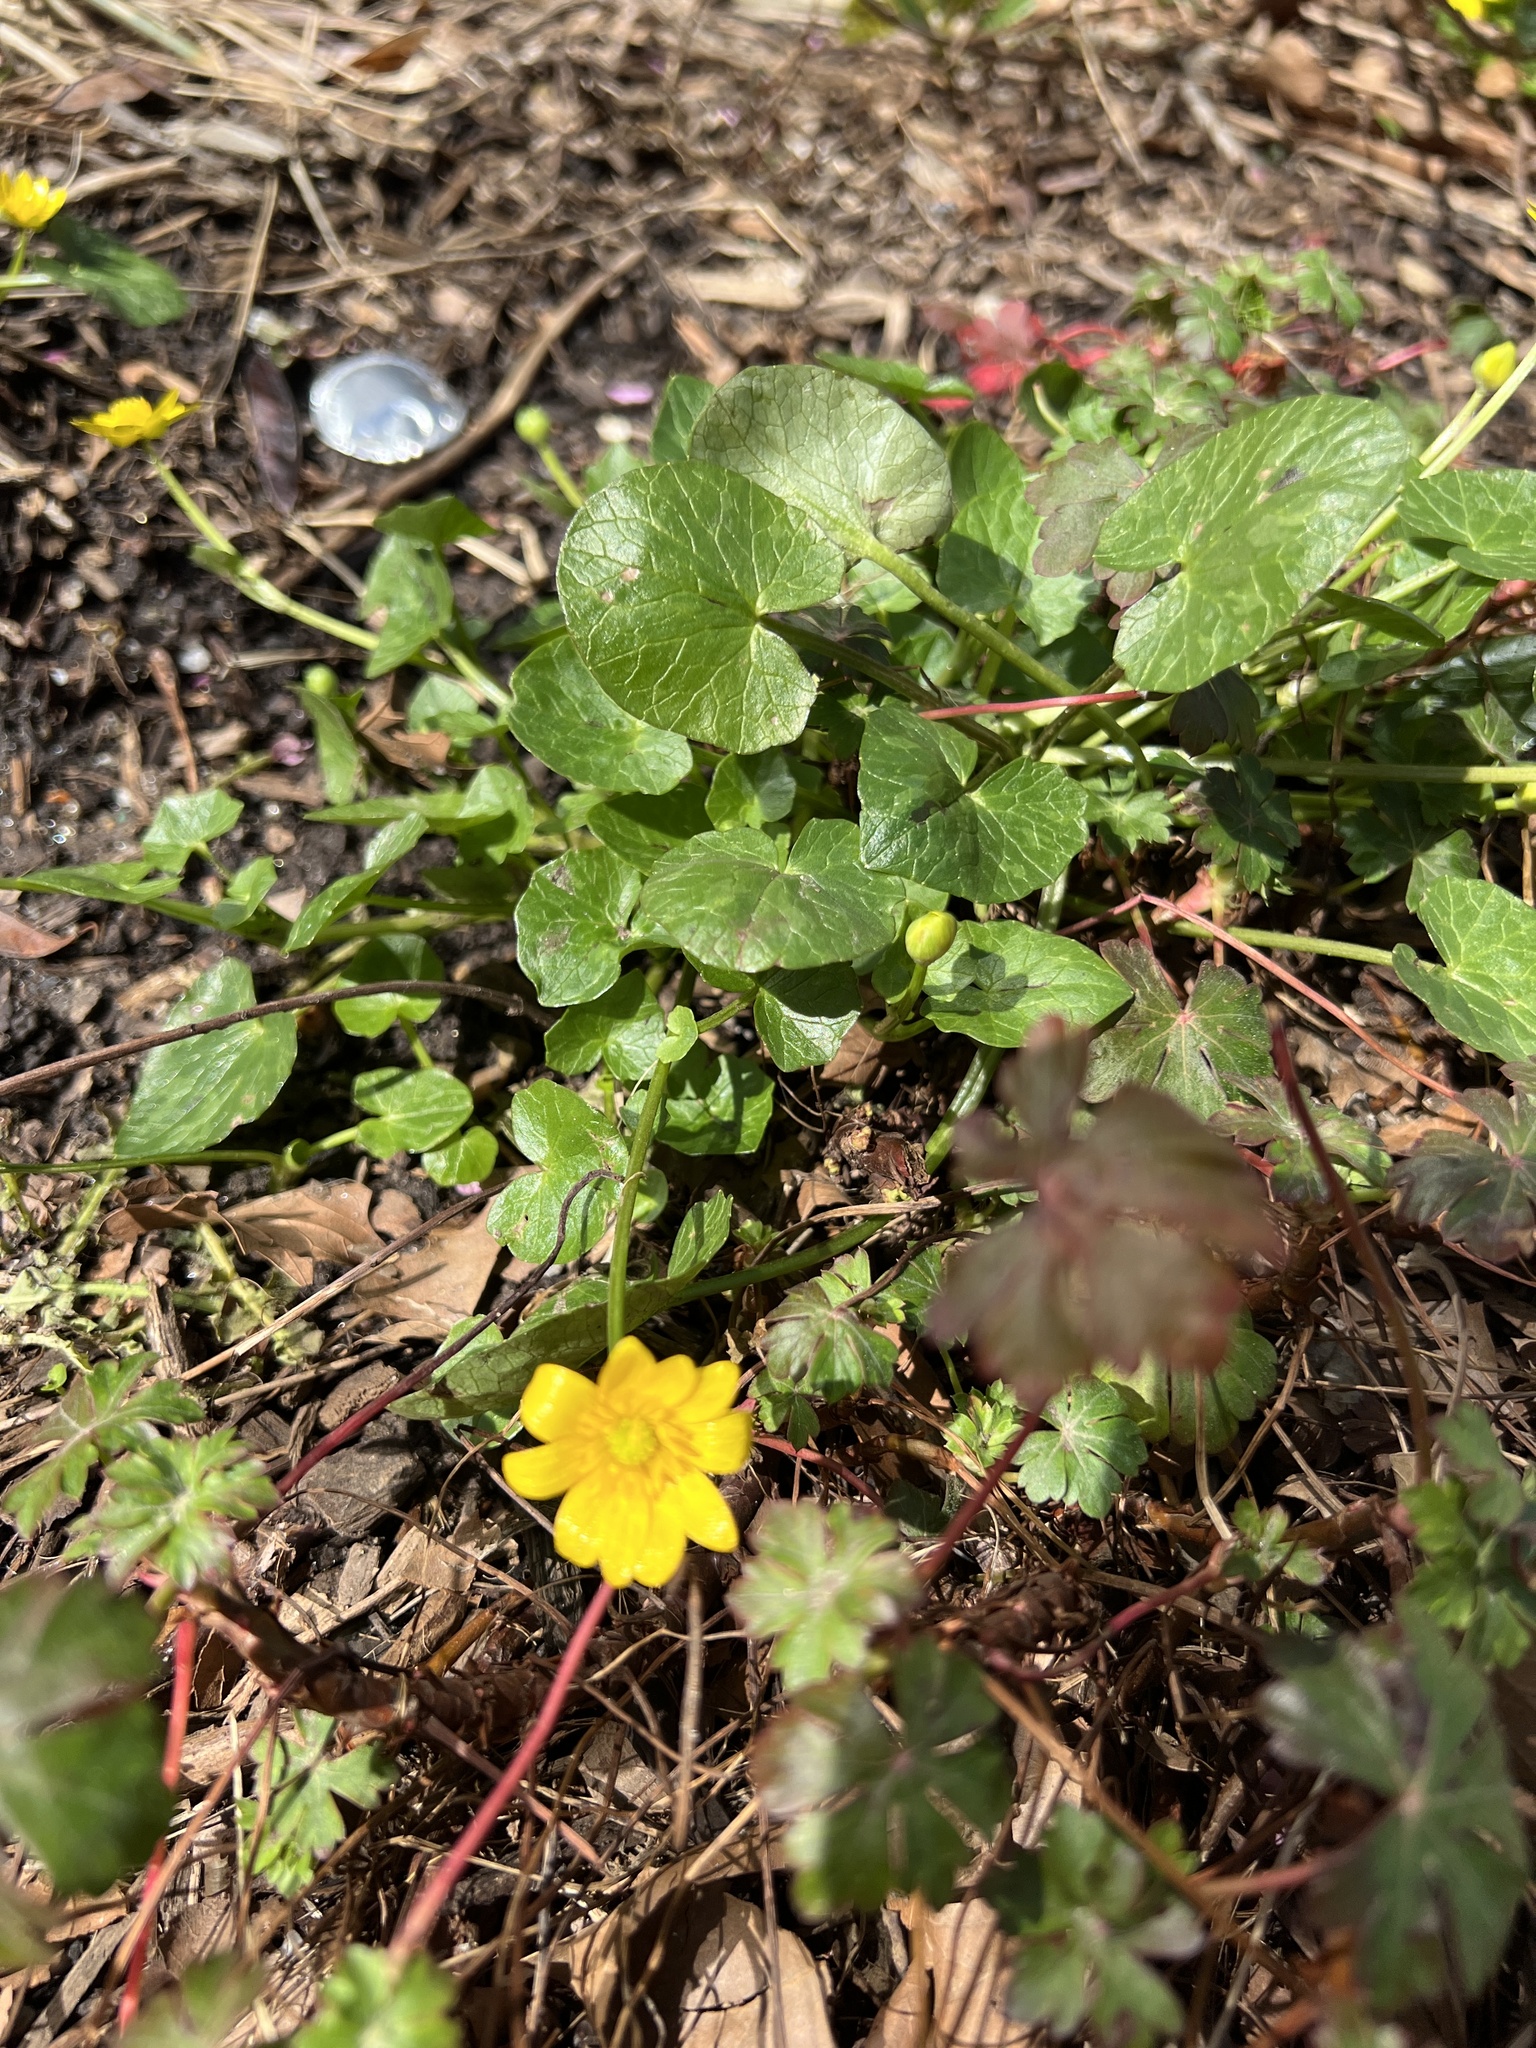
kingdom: Plantae
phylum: Tracheophyta
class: Magnoliopsida
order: Ranunculales
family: Ranunculaceae
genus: Ficaria
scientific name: Ficaria verna
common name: Lesser celandine
